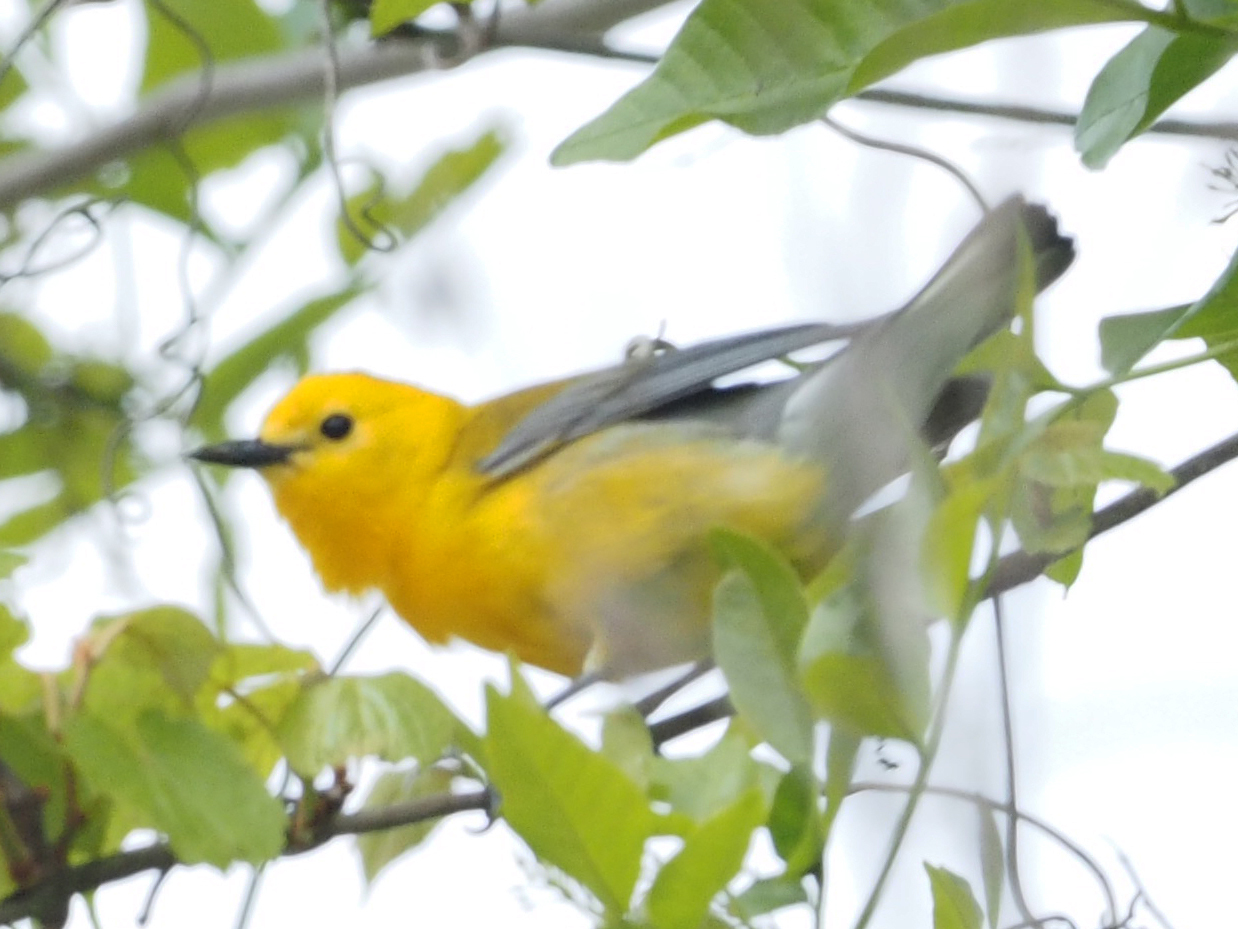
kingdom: Animalia
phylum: Chordata
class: Aves
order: Passeriformes
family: Parulidae
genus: Protonotaria
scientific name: Protonotaria citrea
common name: Prothonotary warbler
